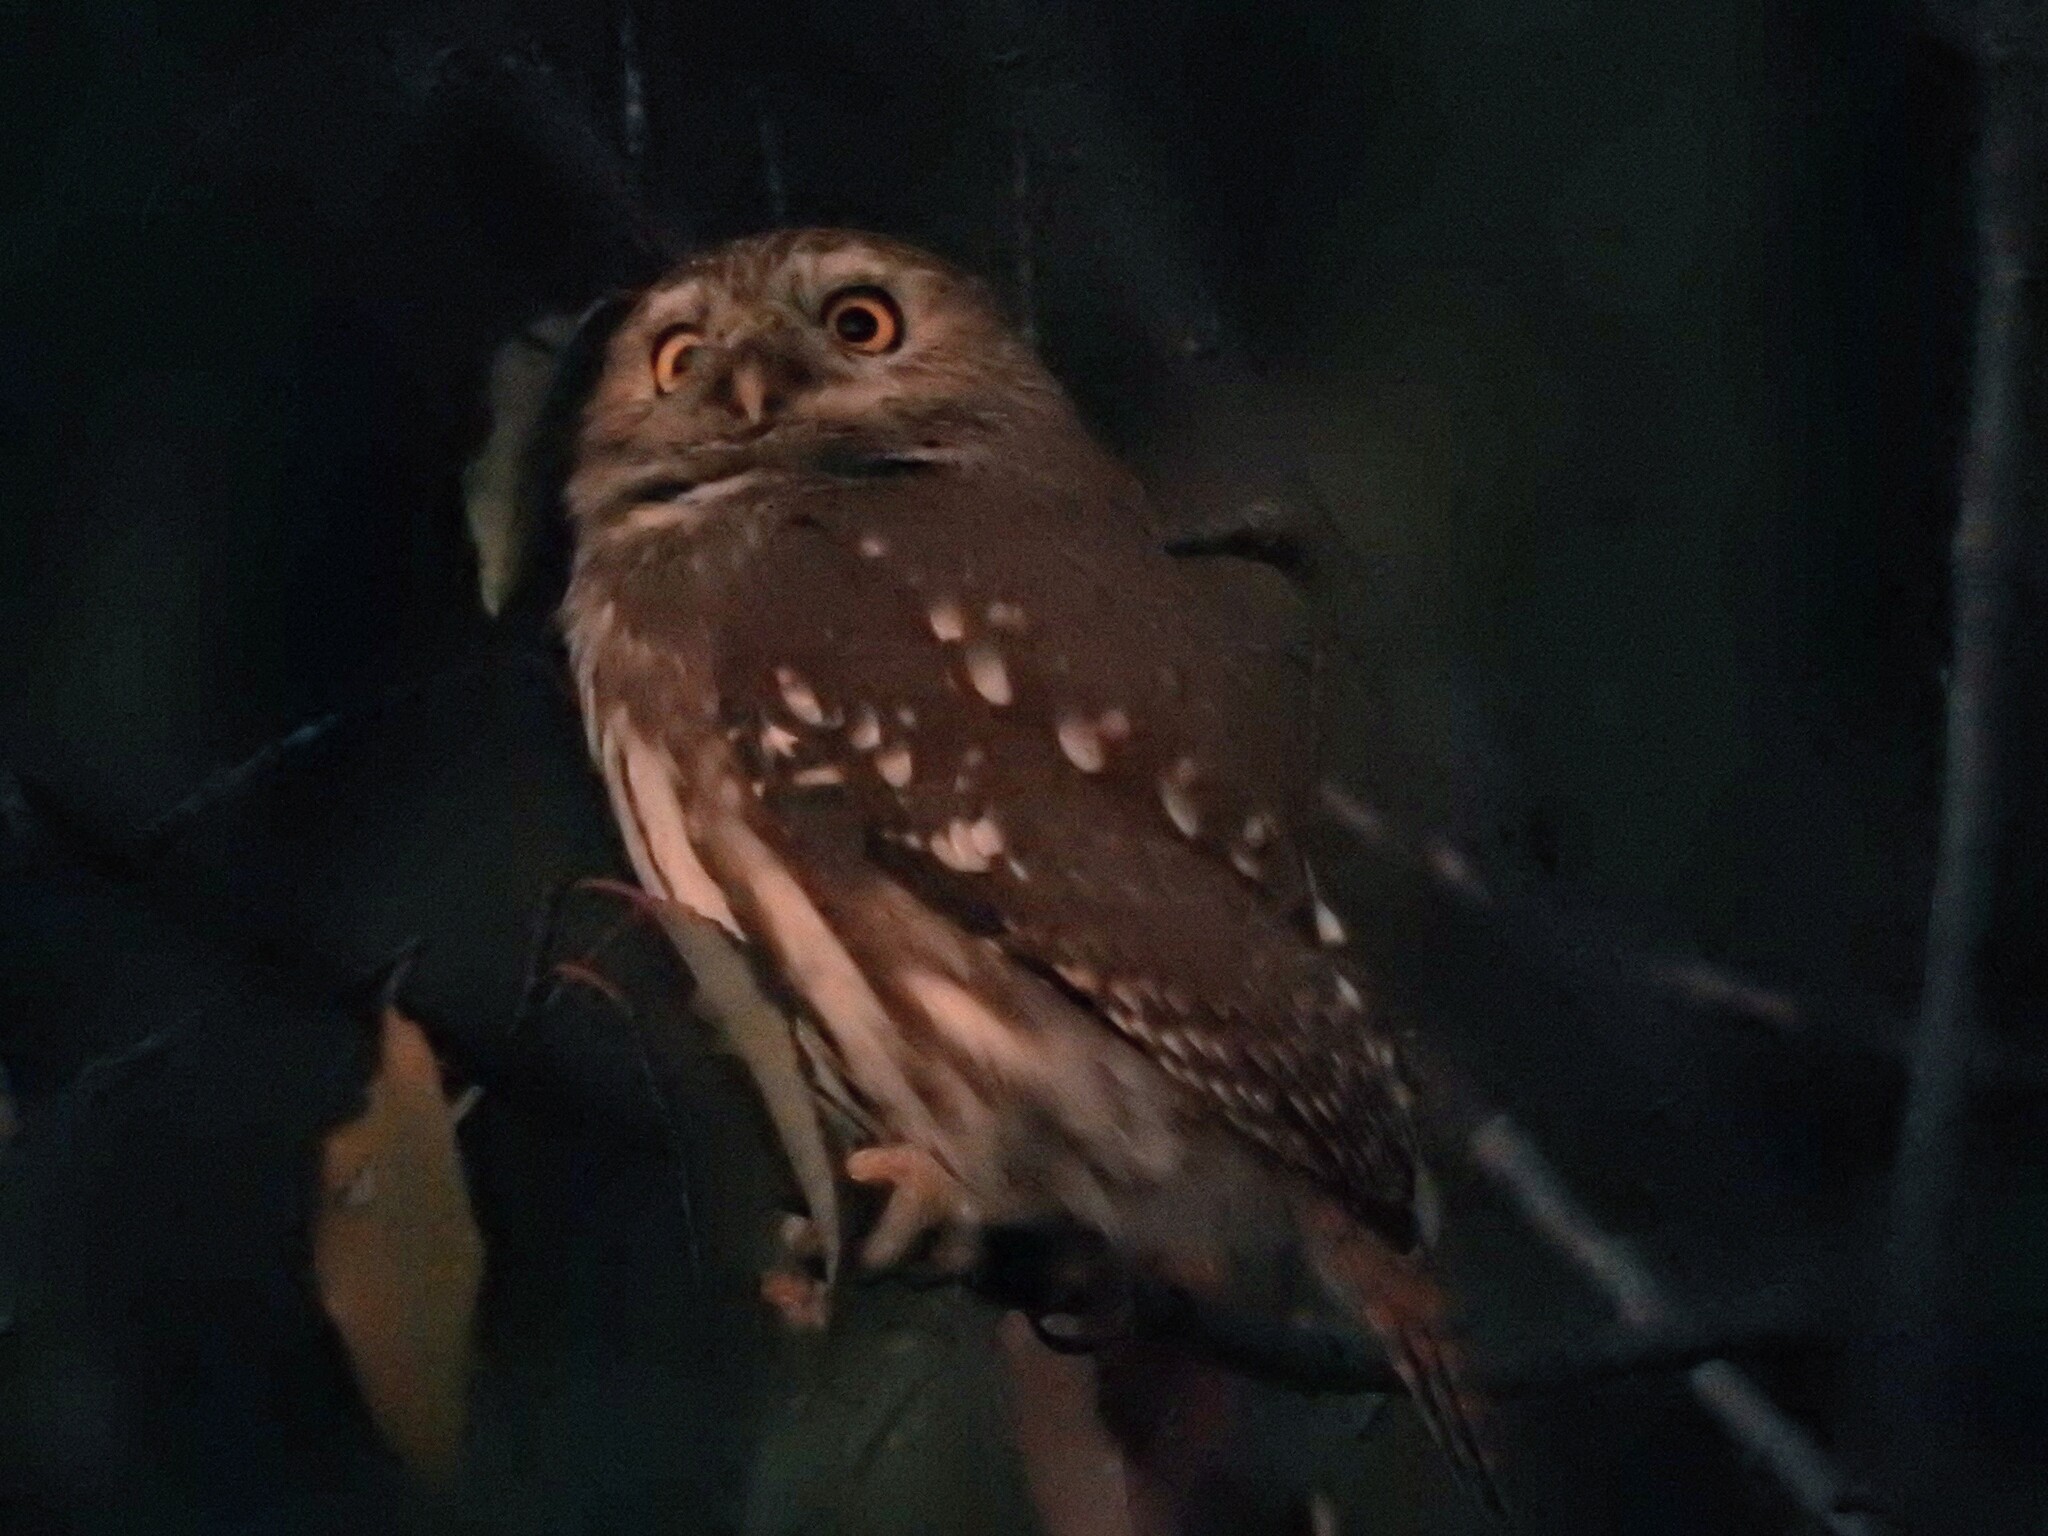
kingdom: Animalia
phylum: Chordata
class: Aves
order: Strigiformes
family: Strigidae
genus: Glaucidium
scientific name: Glaucidium brasilianum
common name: Ferruginous pygmy-owl
